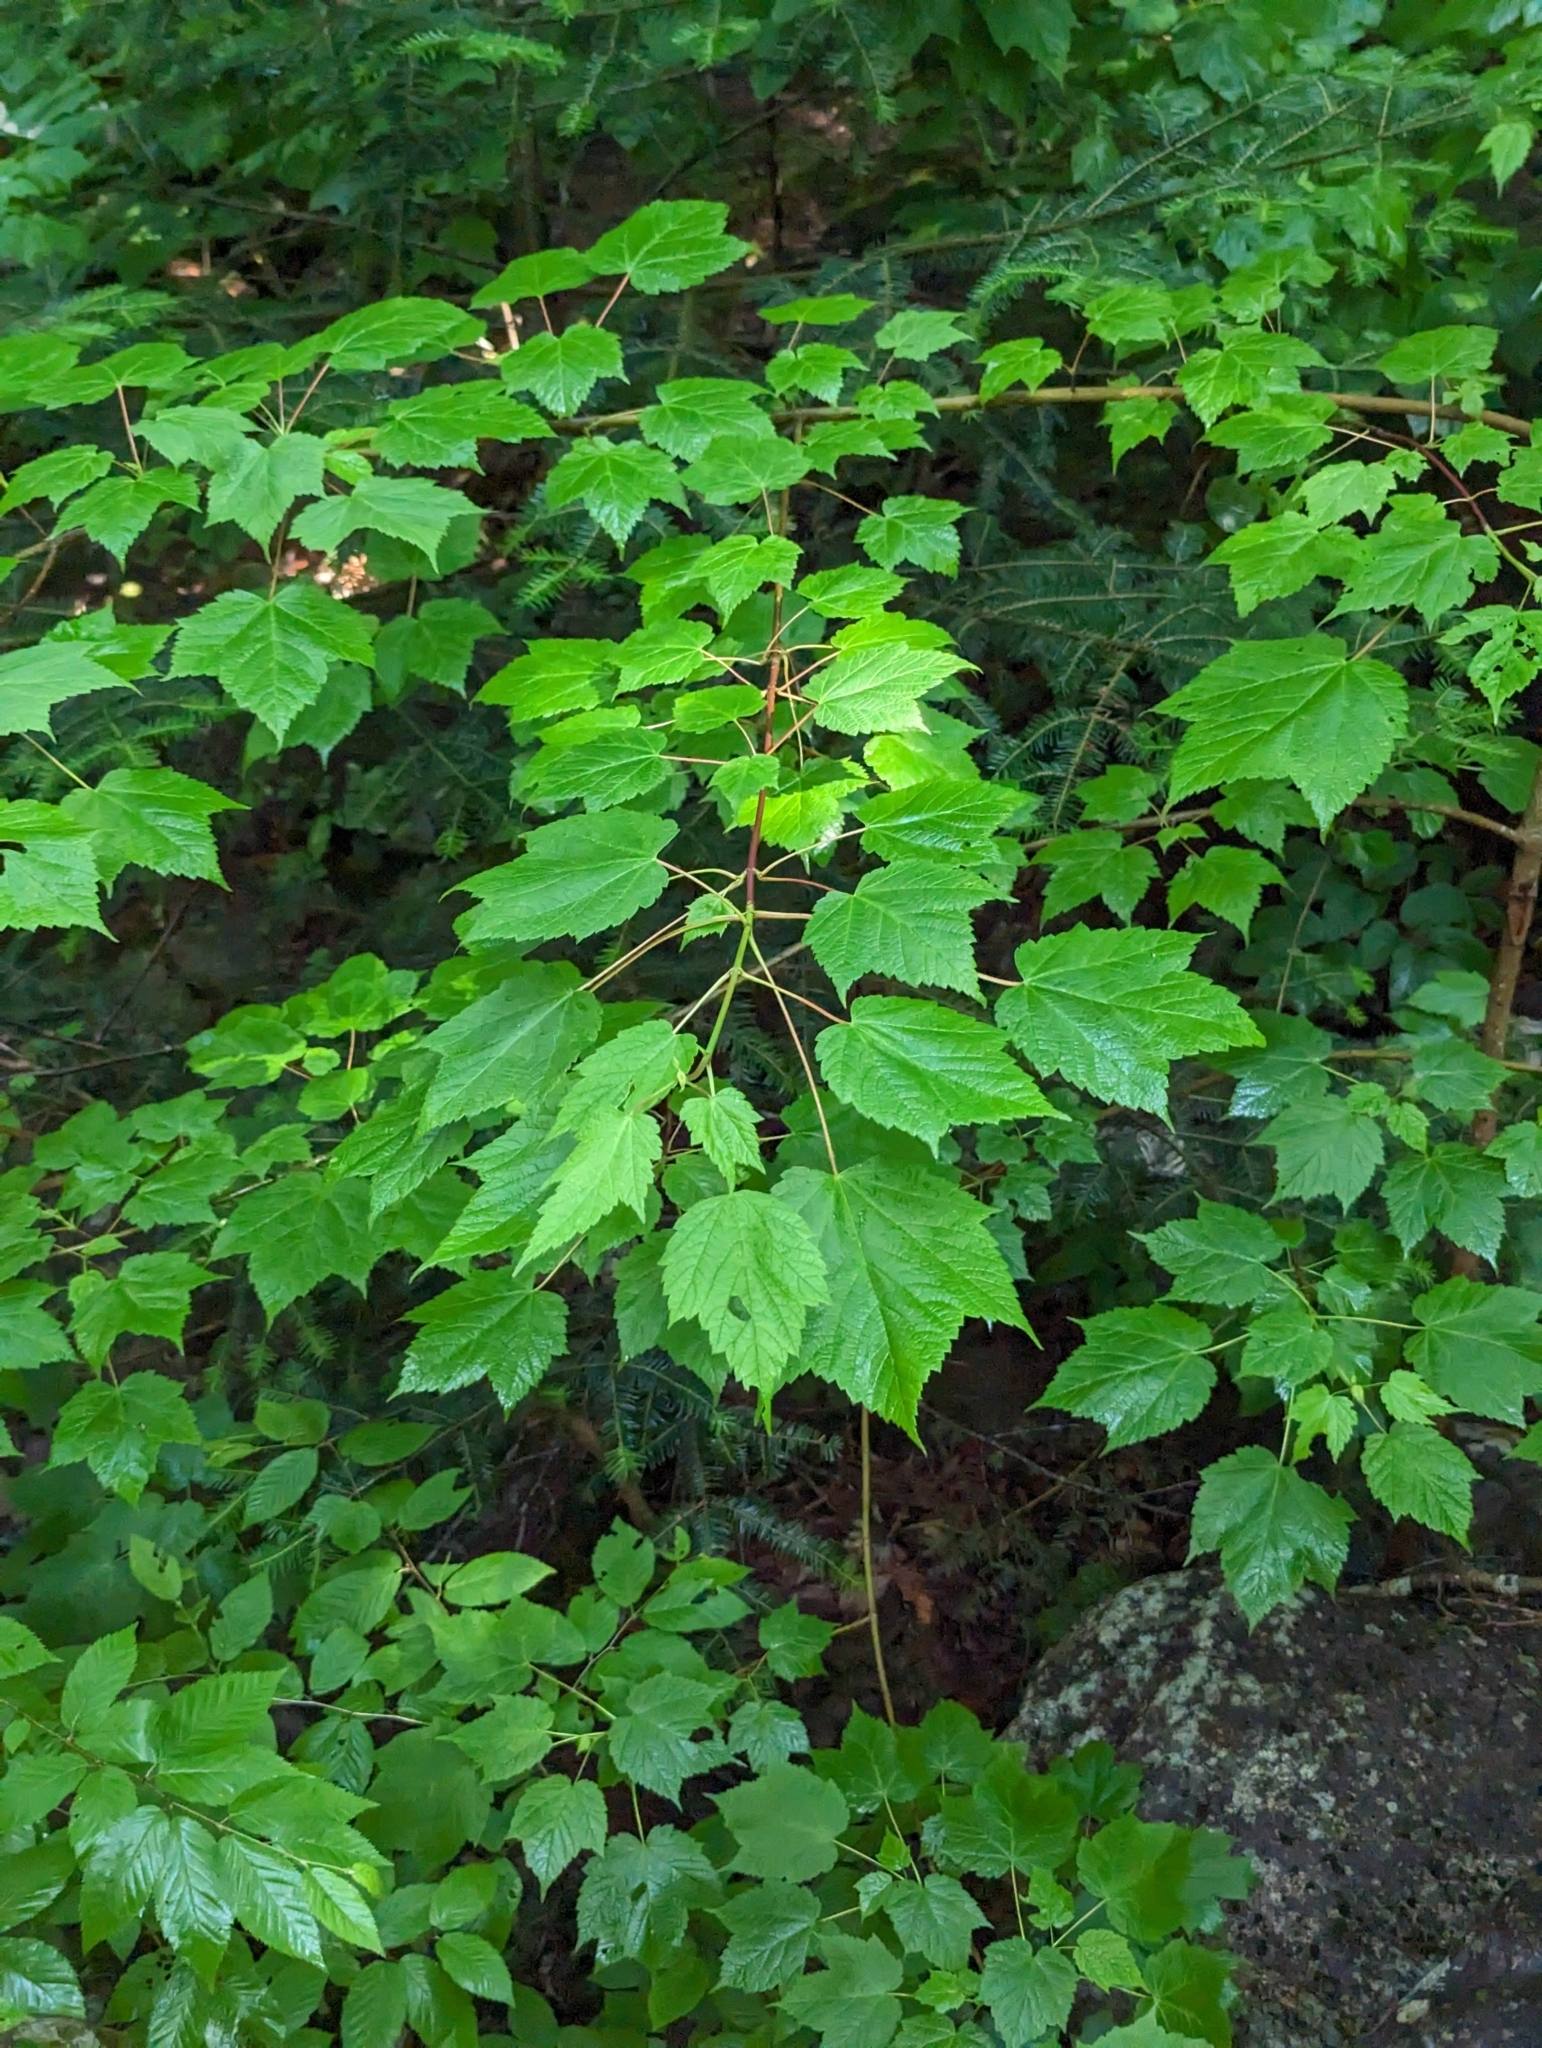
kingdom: Plantae
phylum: Tracheophyta
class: Magnoliopsida
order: Sapindales
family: Sapindaceae
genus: Acer
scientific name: Acer spicatum
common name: Mountain maple
